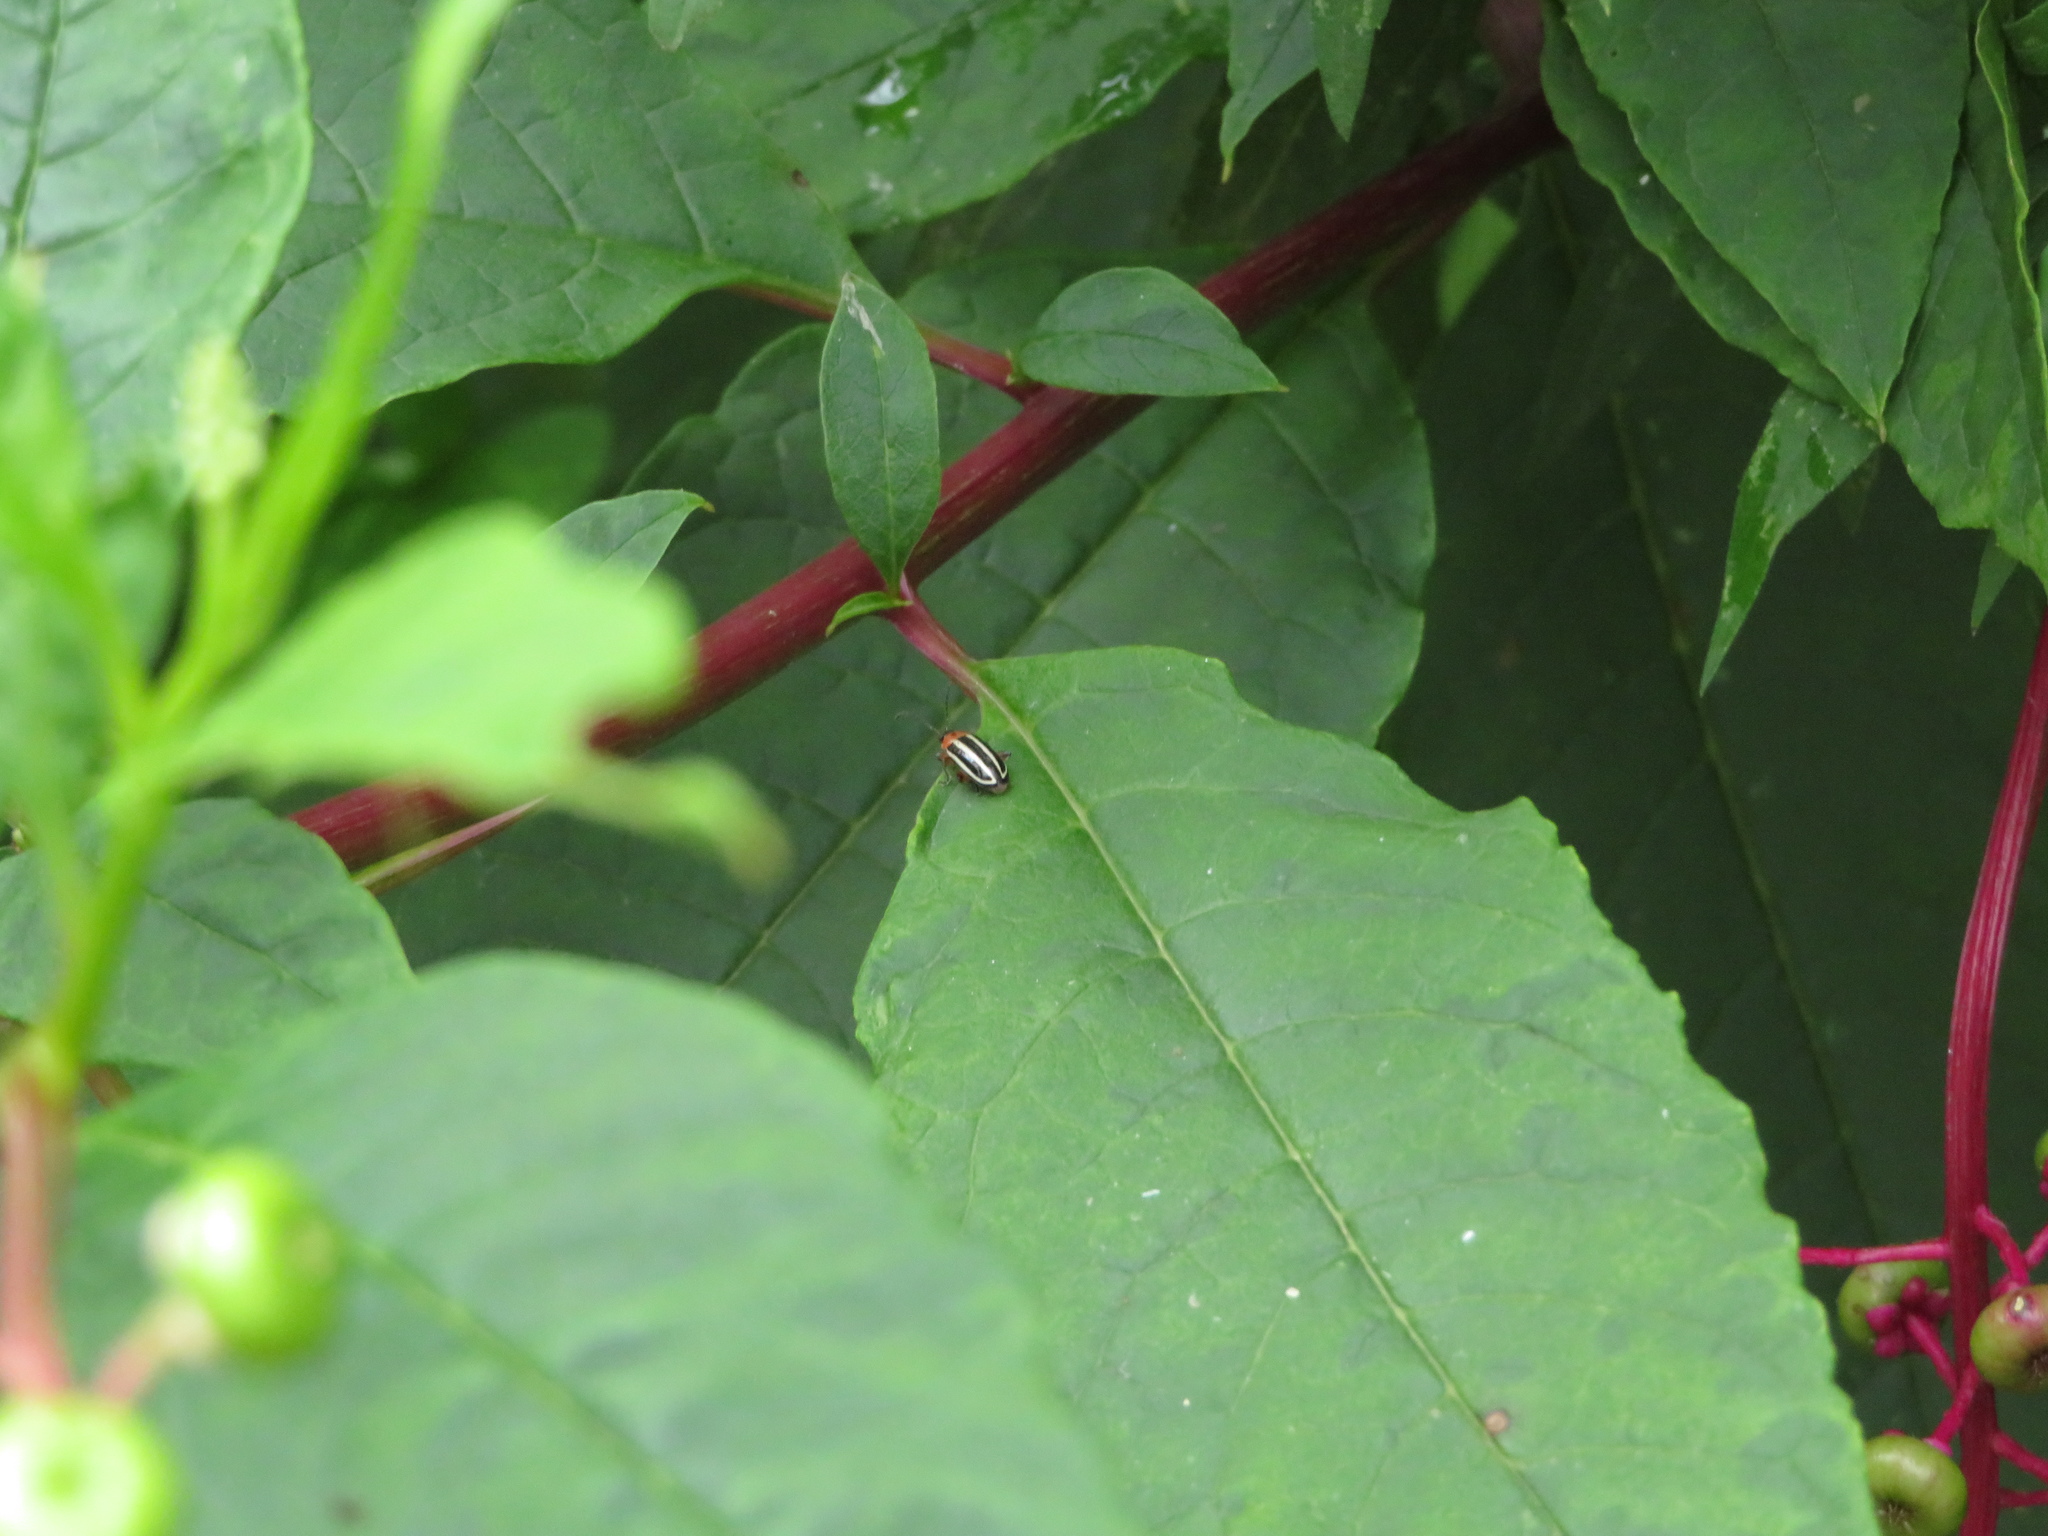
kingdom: Animalia
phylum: Arthropoda
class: Insecta
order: Coleoptera
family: Chrysomelidae
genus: Disonycha
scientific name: Disonycha glabrata
